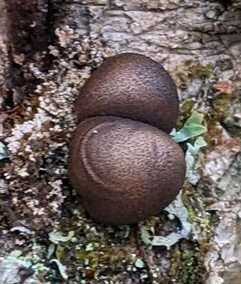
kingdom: Protozoa
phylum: Mycetozoa
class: Myxomycetes
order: Cribrariales
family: Tubiferaceae
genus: Lycogala
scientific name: Lycogala epidendrum
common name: Wolf's milk
